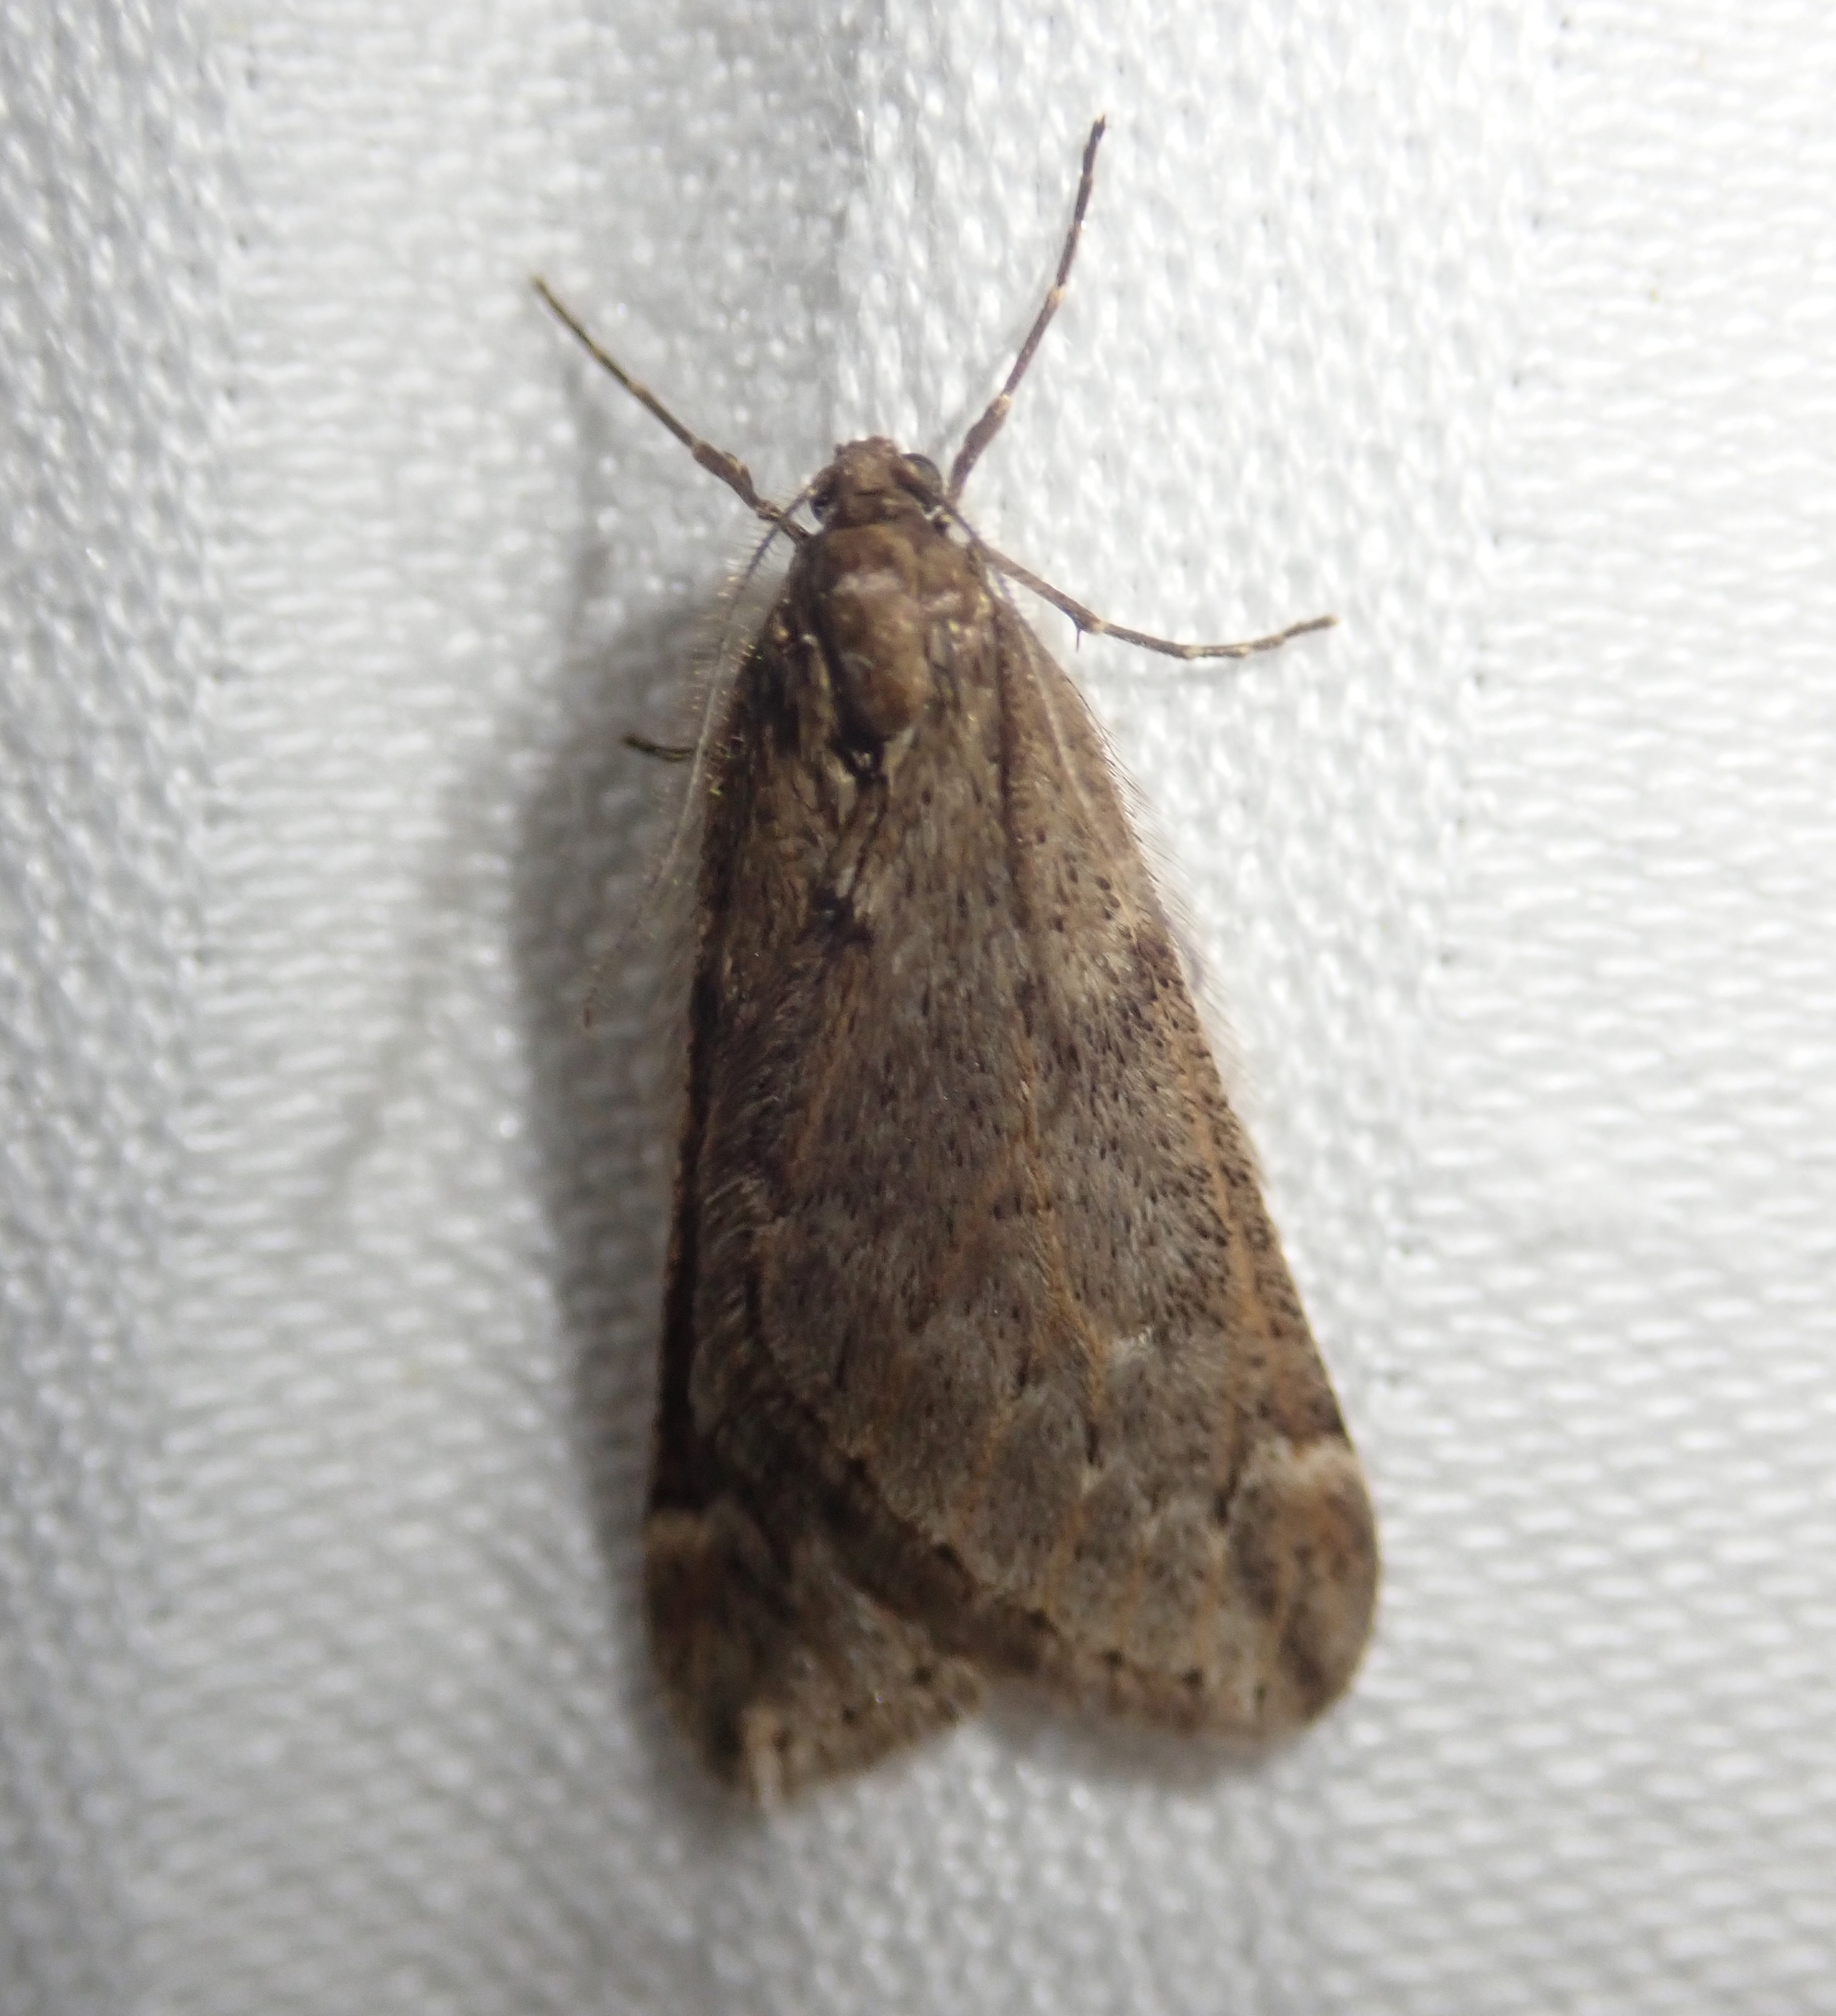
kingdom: Animalia
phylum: Arthropoda
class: Insecta
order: Lepidoptera
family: Geometridae
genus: Alsophila
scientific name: Alsophila aescularia
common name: March moth
